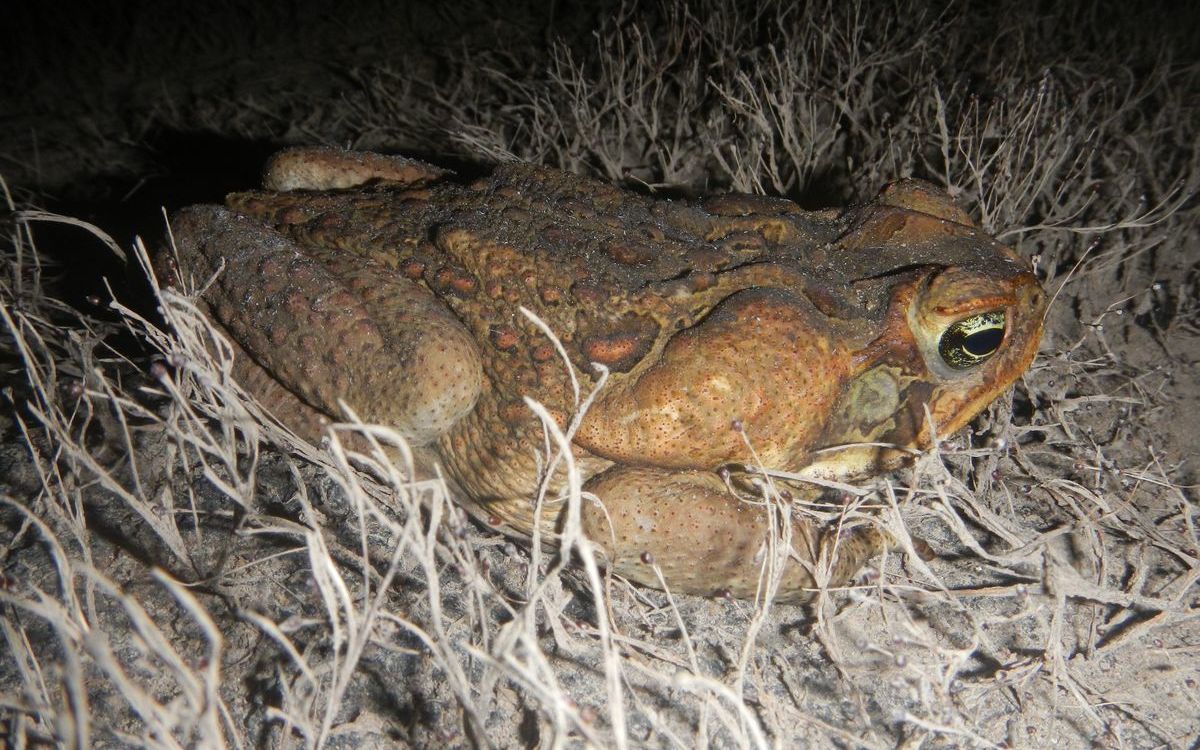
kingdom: Animalia
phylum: Chordata
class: Amphibia
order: Anura
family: Bufonidae
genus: Rhinella
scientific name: Rhinella marina
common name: Cane toad
